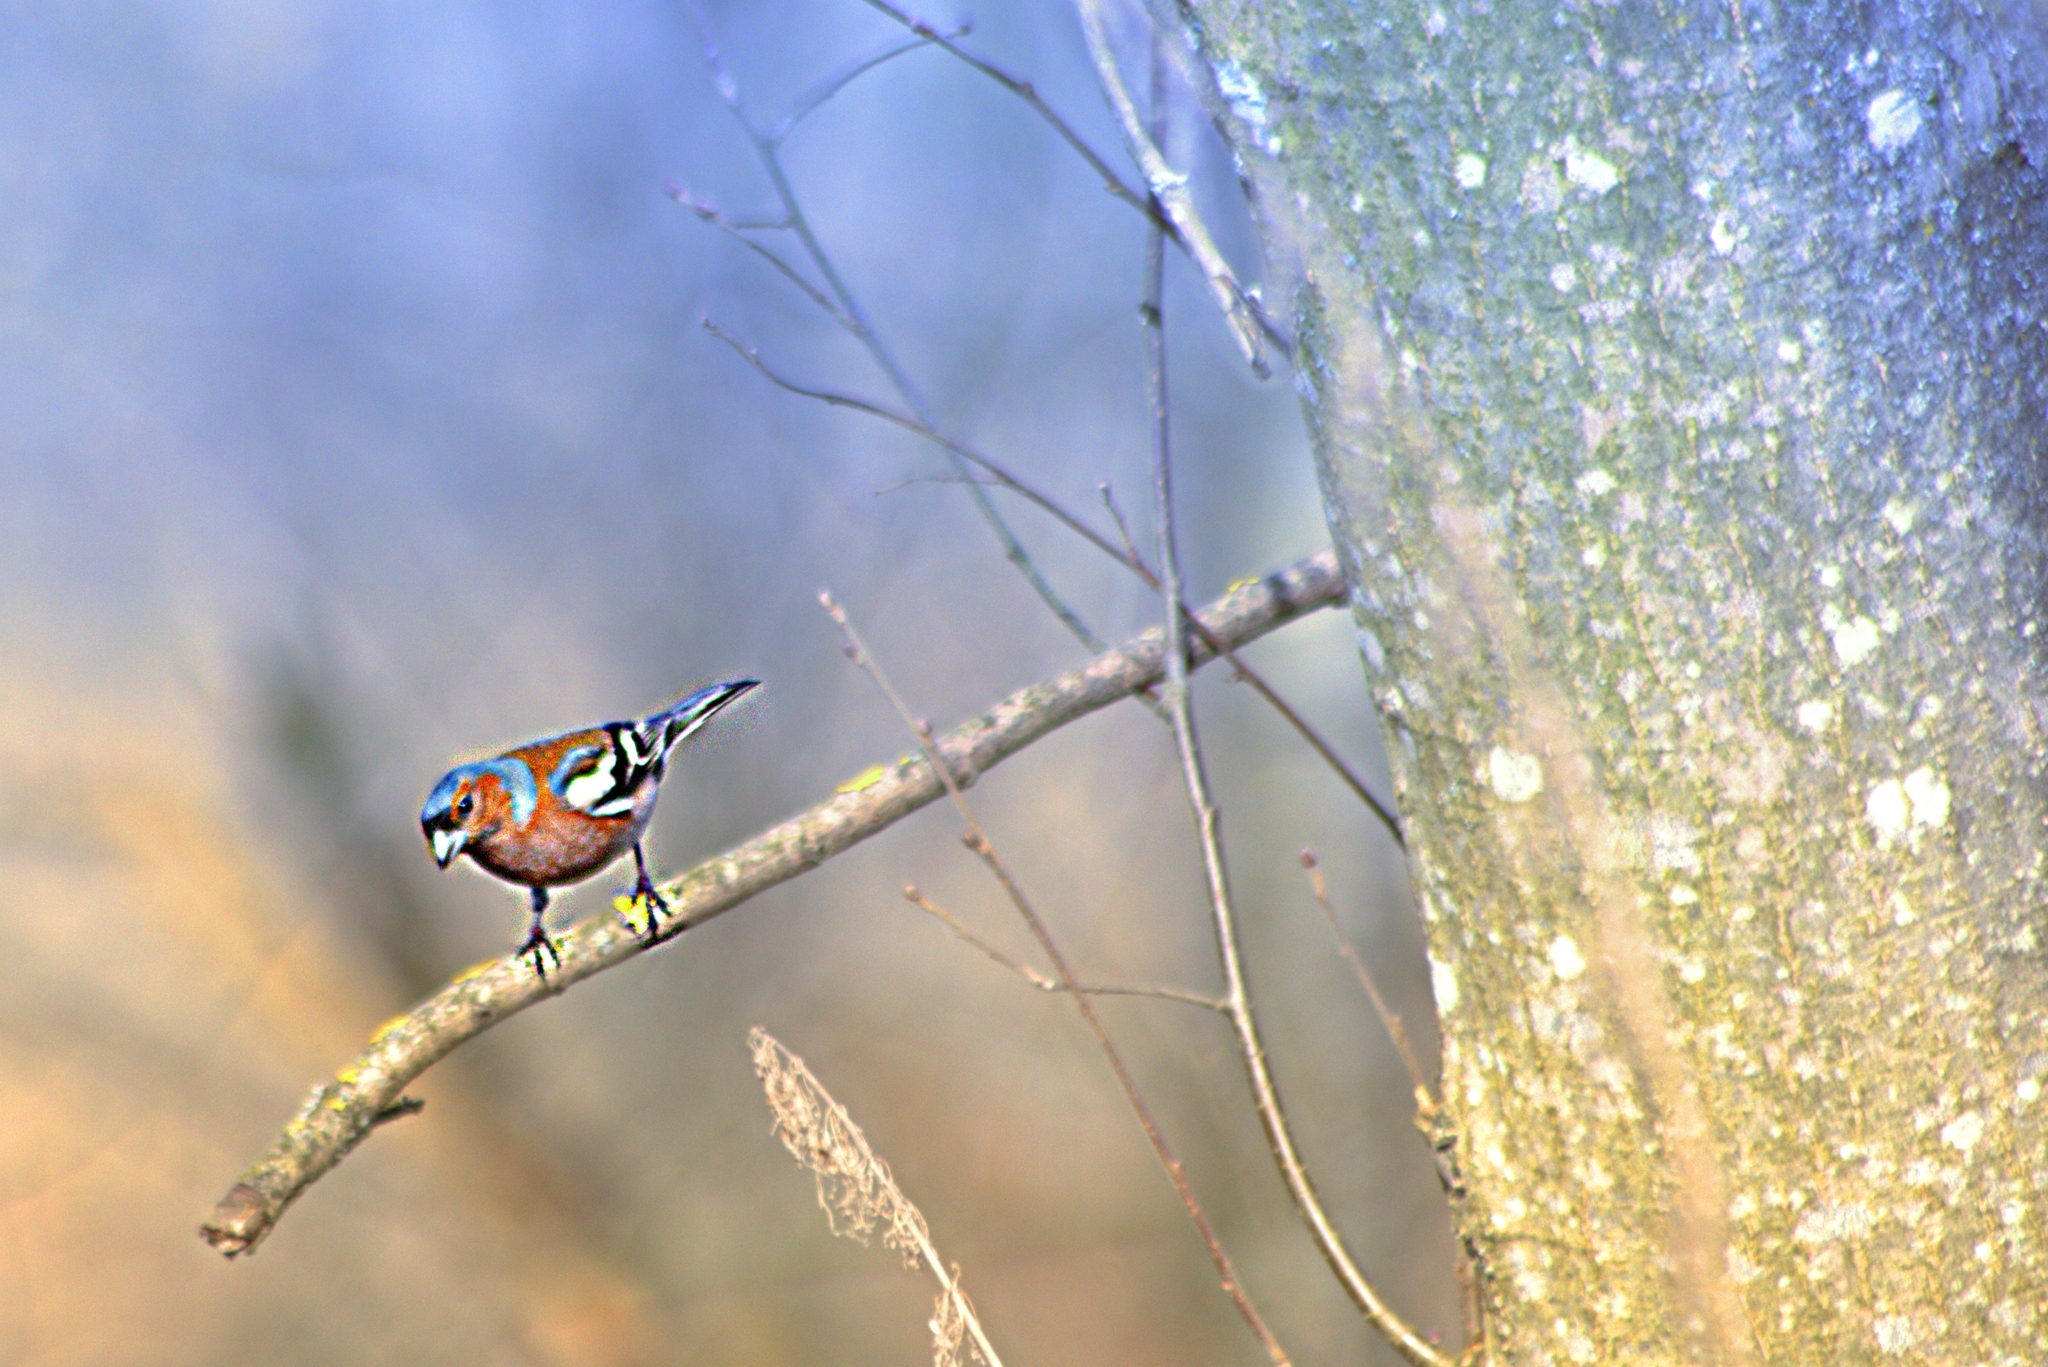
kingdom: Animalia
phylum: Chordata
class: Aves
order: Passeriformes
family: Fringillidae
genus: Fringilla
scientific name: Fringilla coelebs
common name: Common chaffinch
